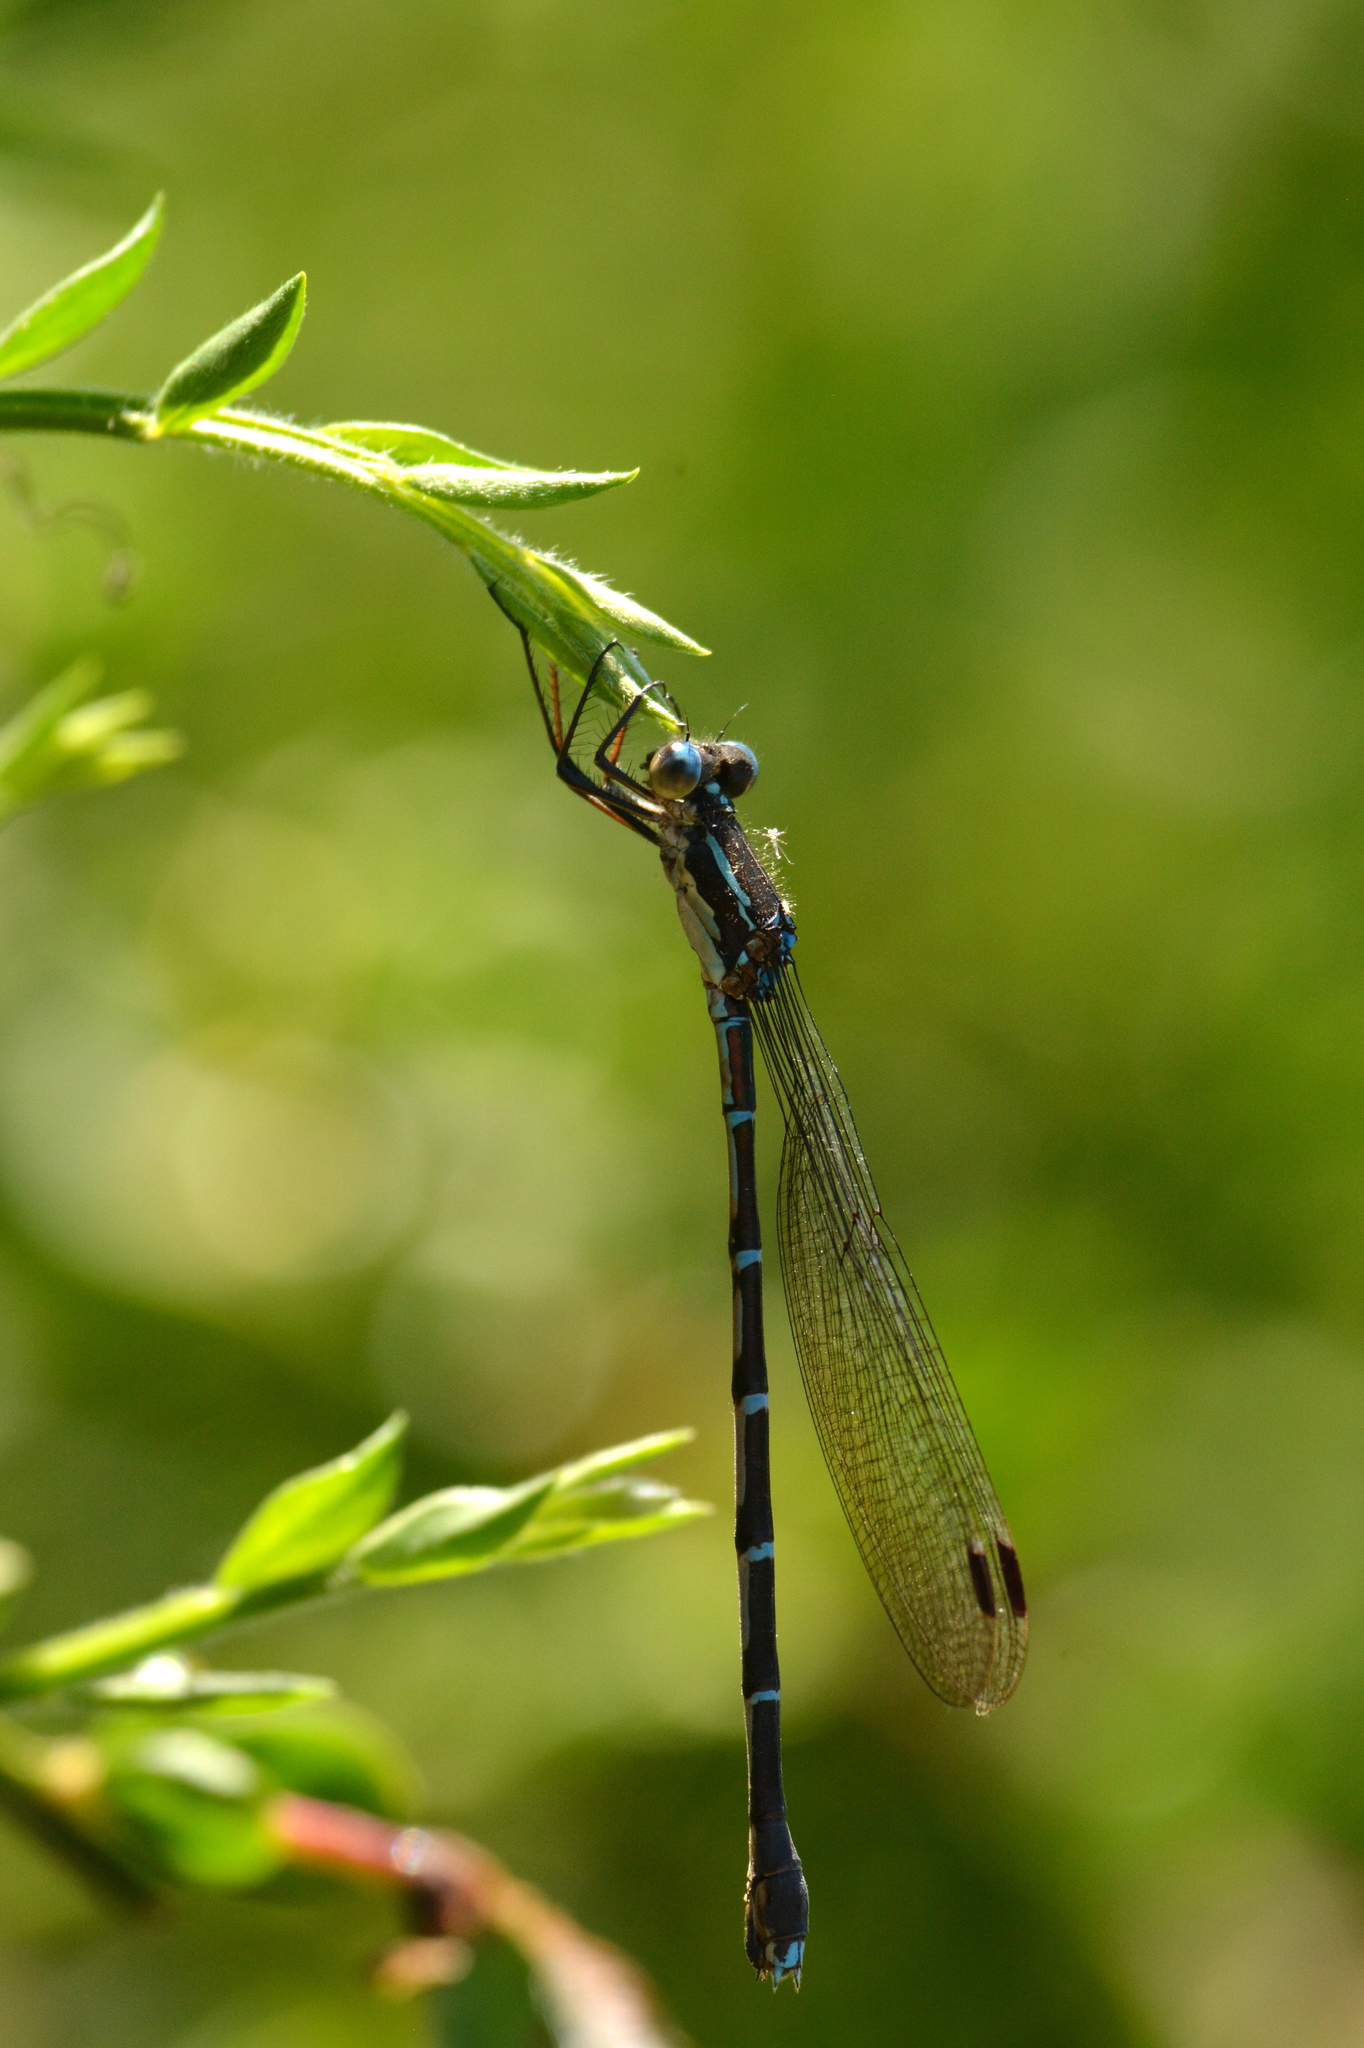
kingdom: Animalia
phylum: Arthropoda
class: Insecta
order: Odonata
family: Lestidae
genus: Austrolestes
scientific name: Austrolestes colensonis
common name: Blue damselfly
